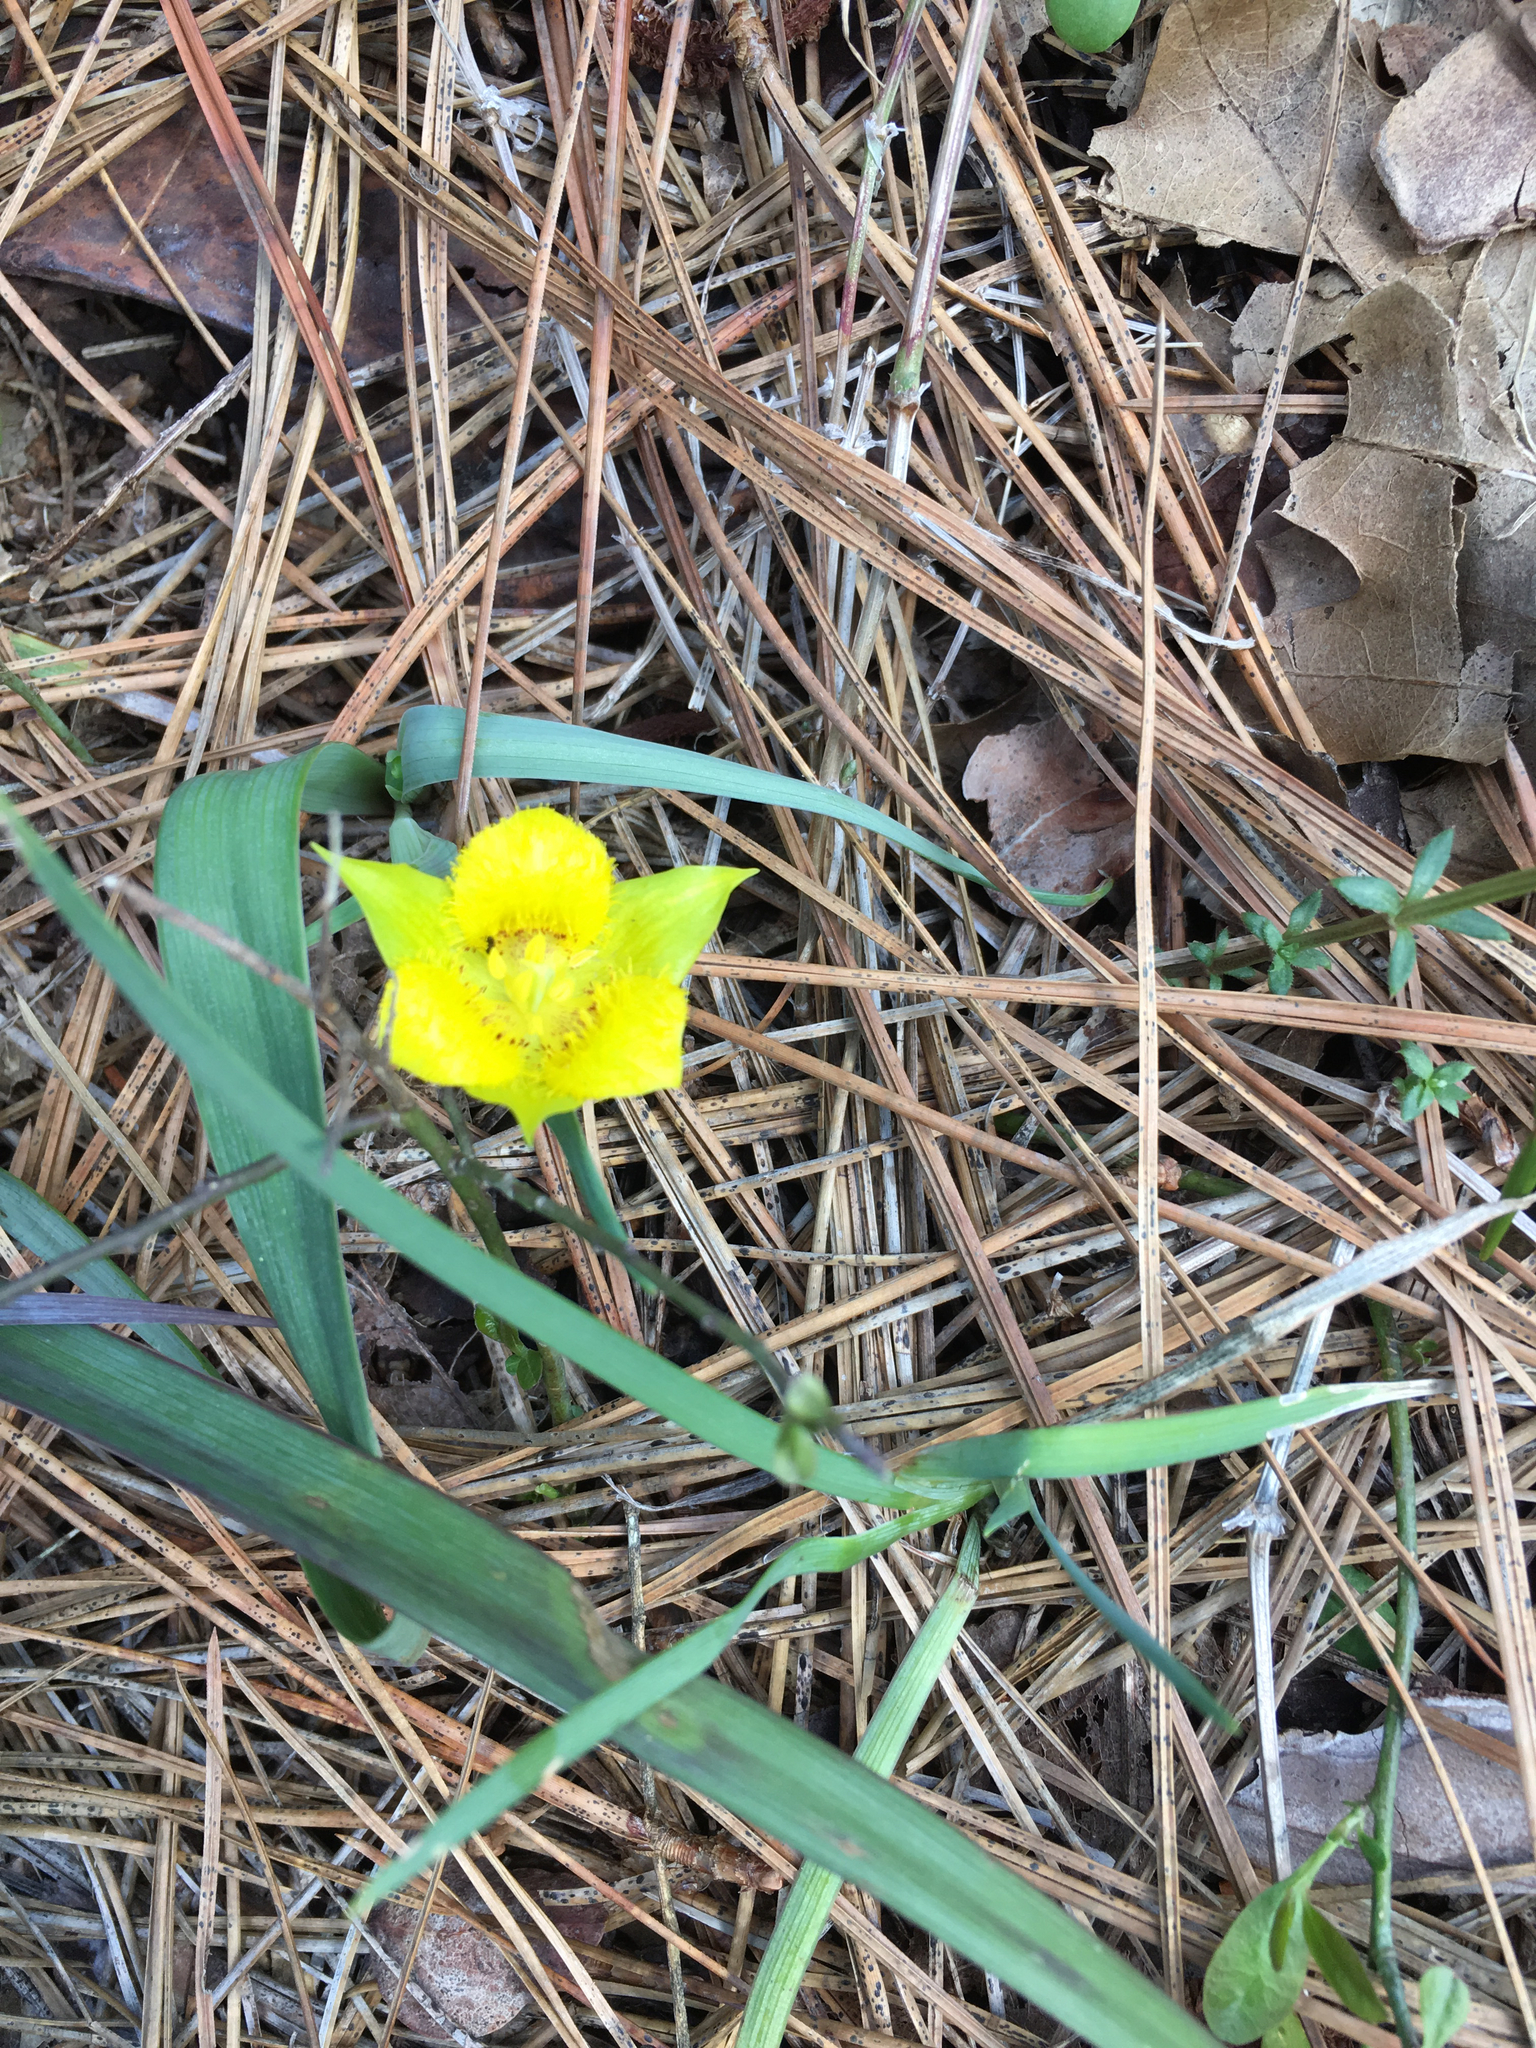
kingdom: Plantae
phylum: Tracheophyta
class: Liliopsida
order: Liliales
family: Liliaceae
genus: Calochortus
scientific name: Calochortus monophyllus
